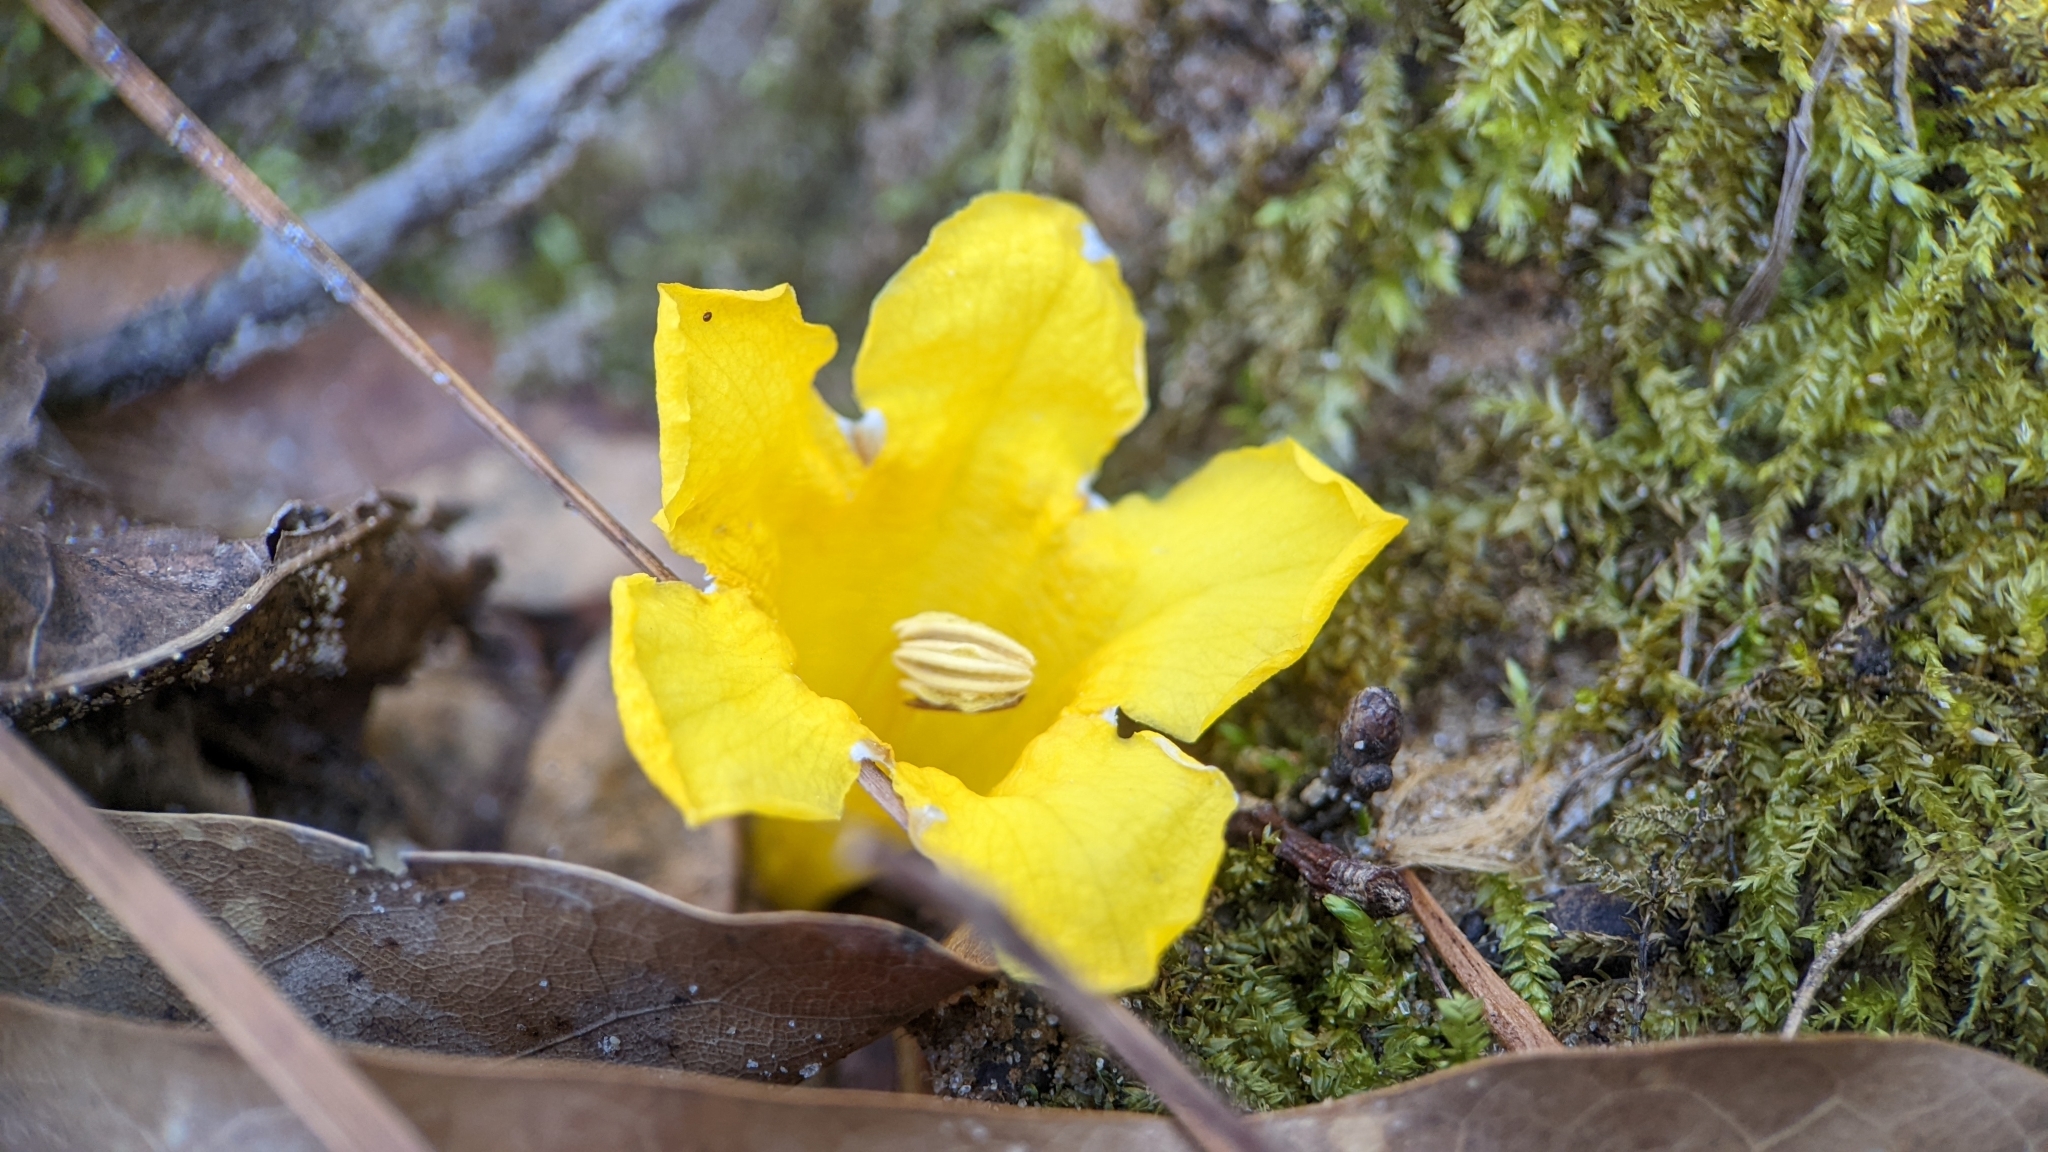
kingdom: Plantae
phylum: Tracheophyta
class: Magnoliopsida
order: Gentianales
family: Gelsemiaceae
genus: Gelsemium
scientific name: Gelsemium sempervirens
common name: Carolina-jasmine
